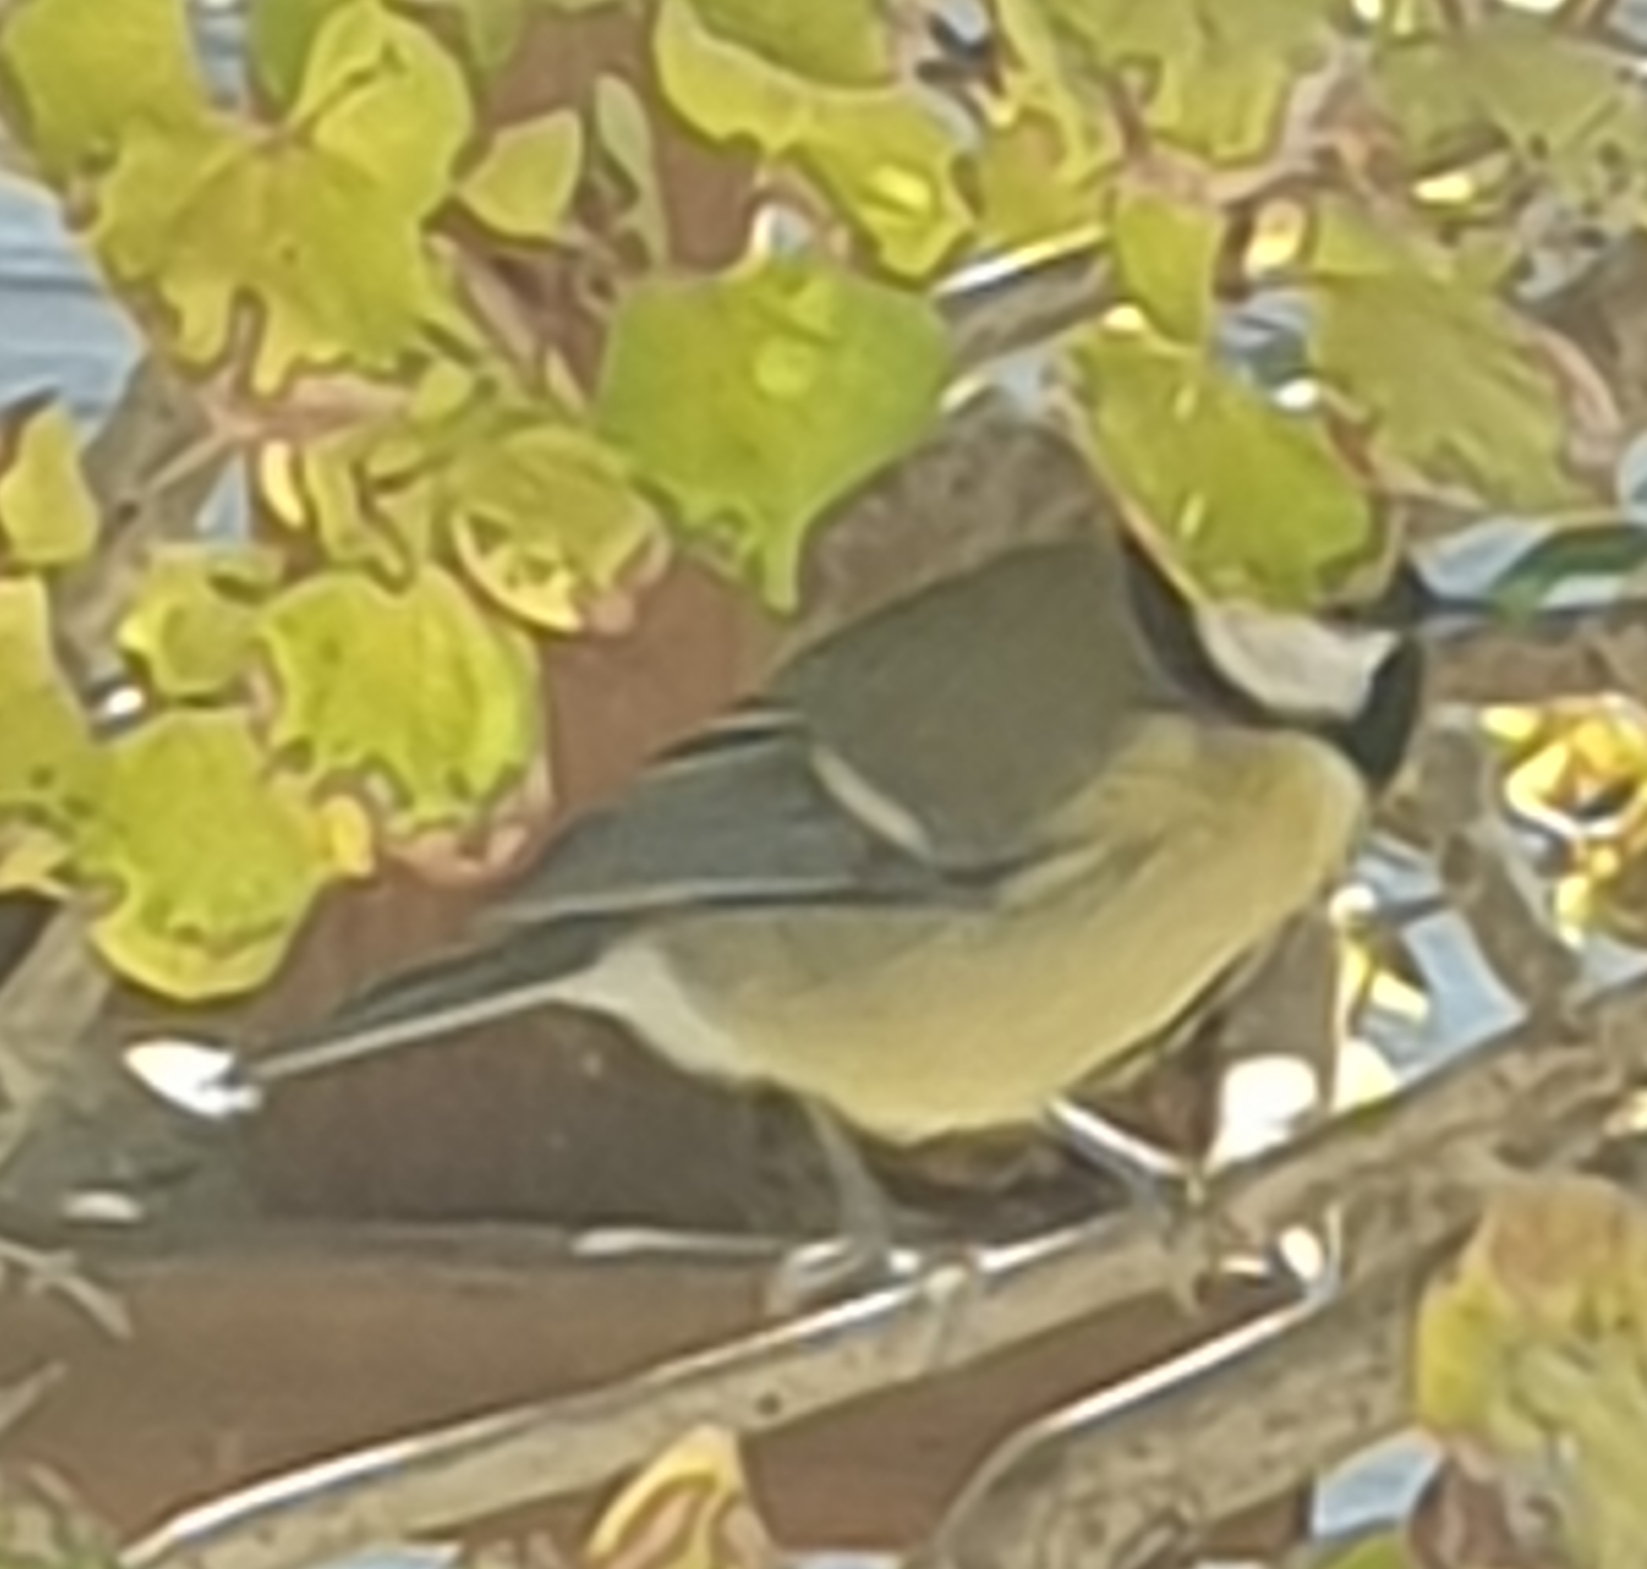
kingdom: Animalia
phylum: Chordata
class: Aves
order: Passeriformes
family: Paridae
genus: Parus
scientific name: Parus major
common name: Great tit
